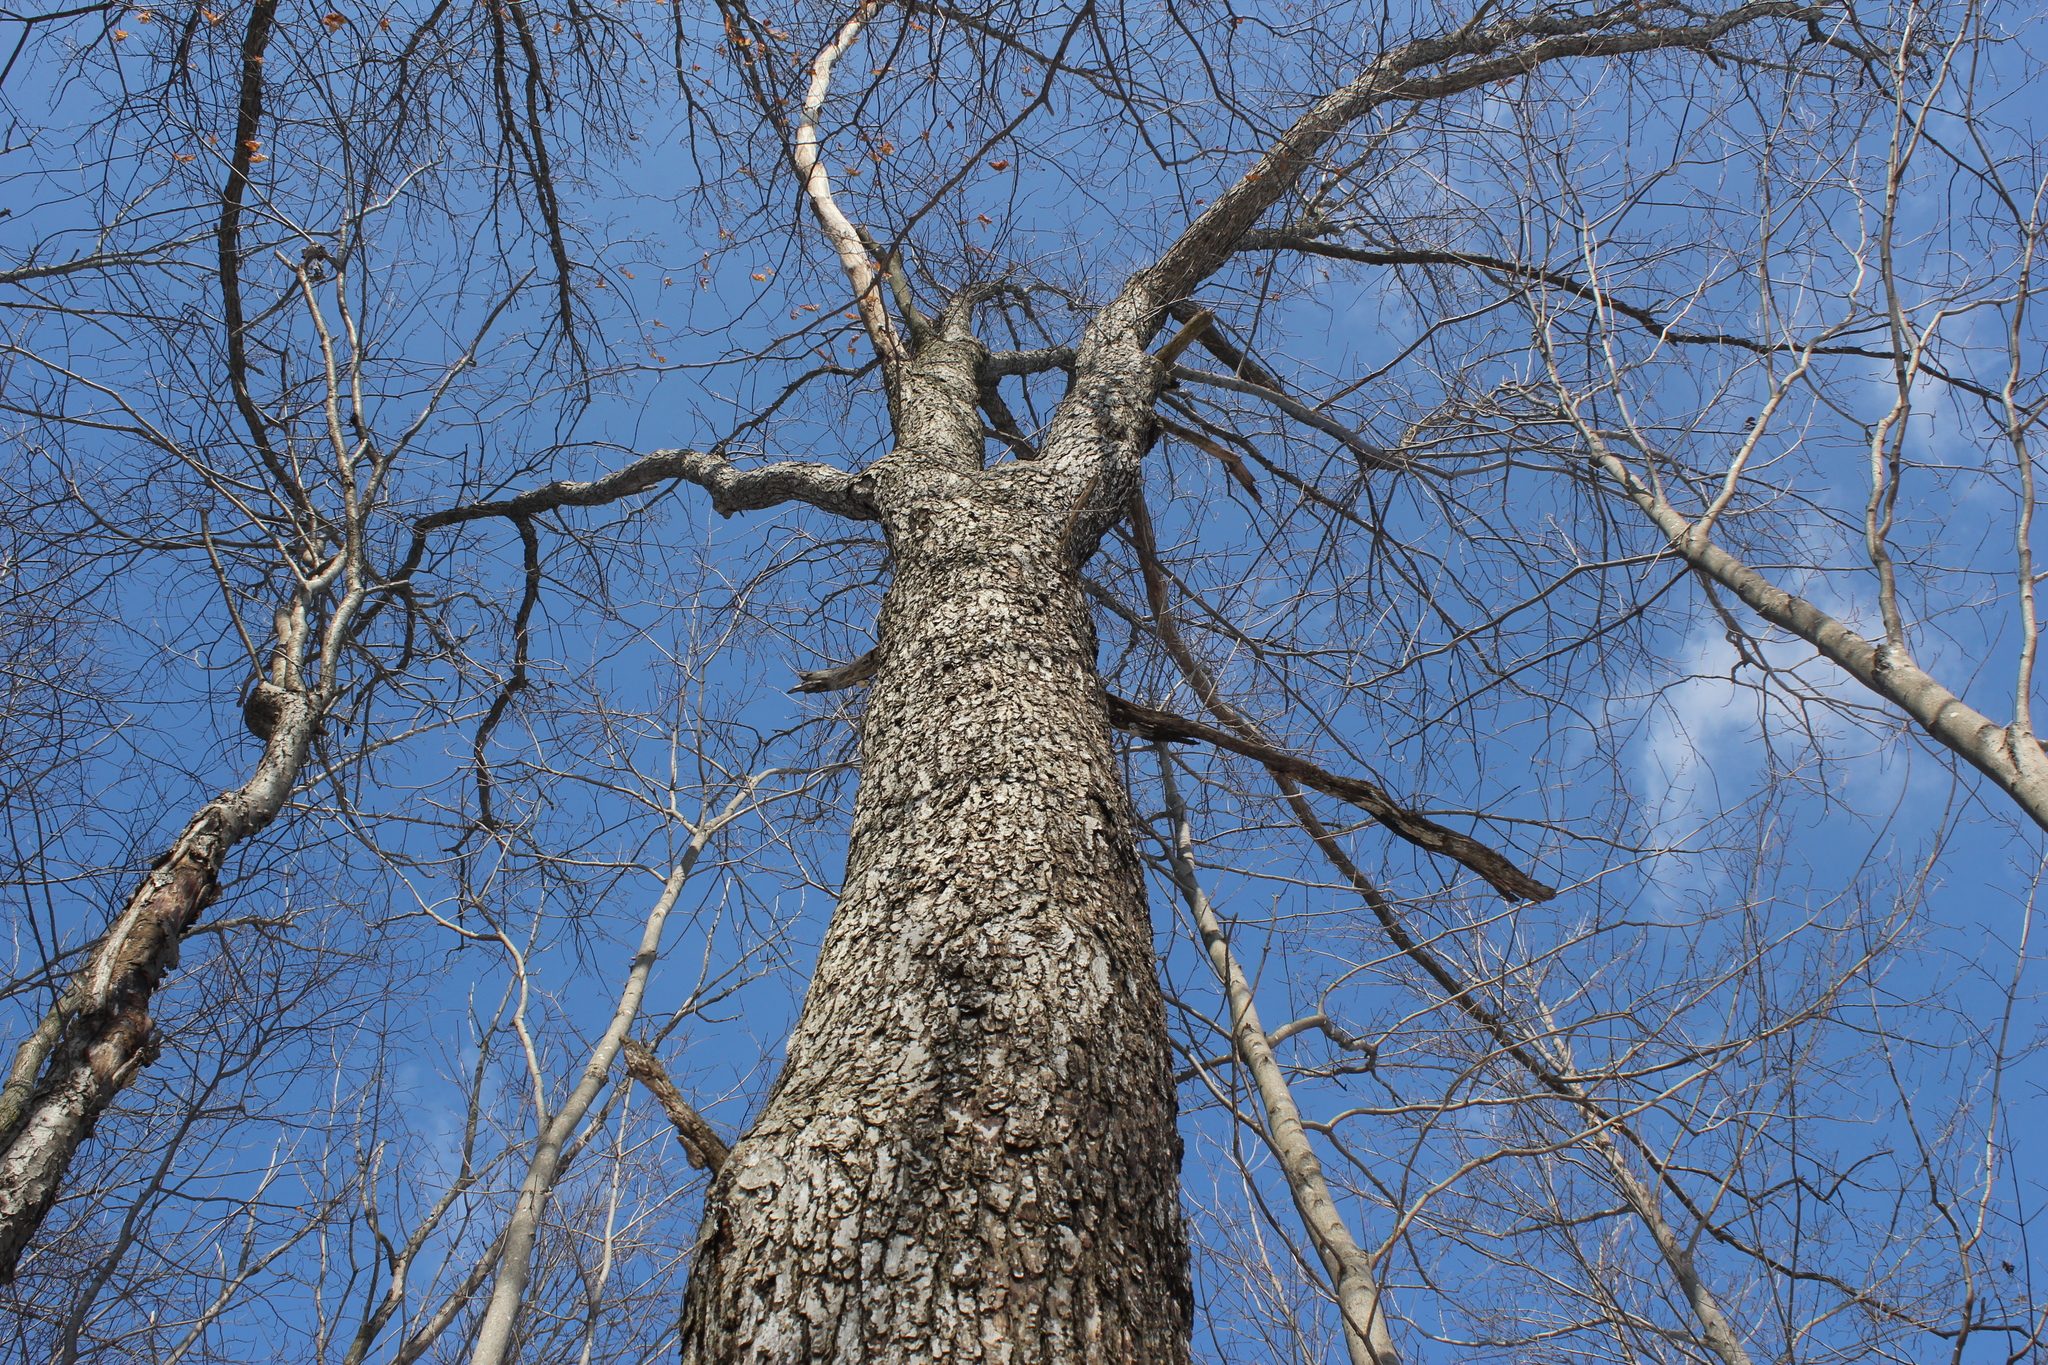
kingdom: Plantae
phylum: Tracheophyta
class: Magnoliopsida
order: Fagales
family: Fagaceae
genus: Quercus
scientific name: Quercus alba
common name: White oak
